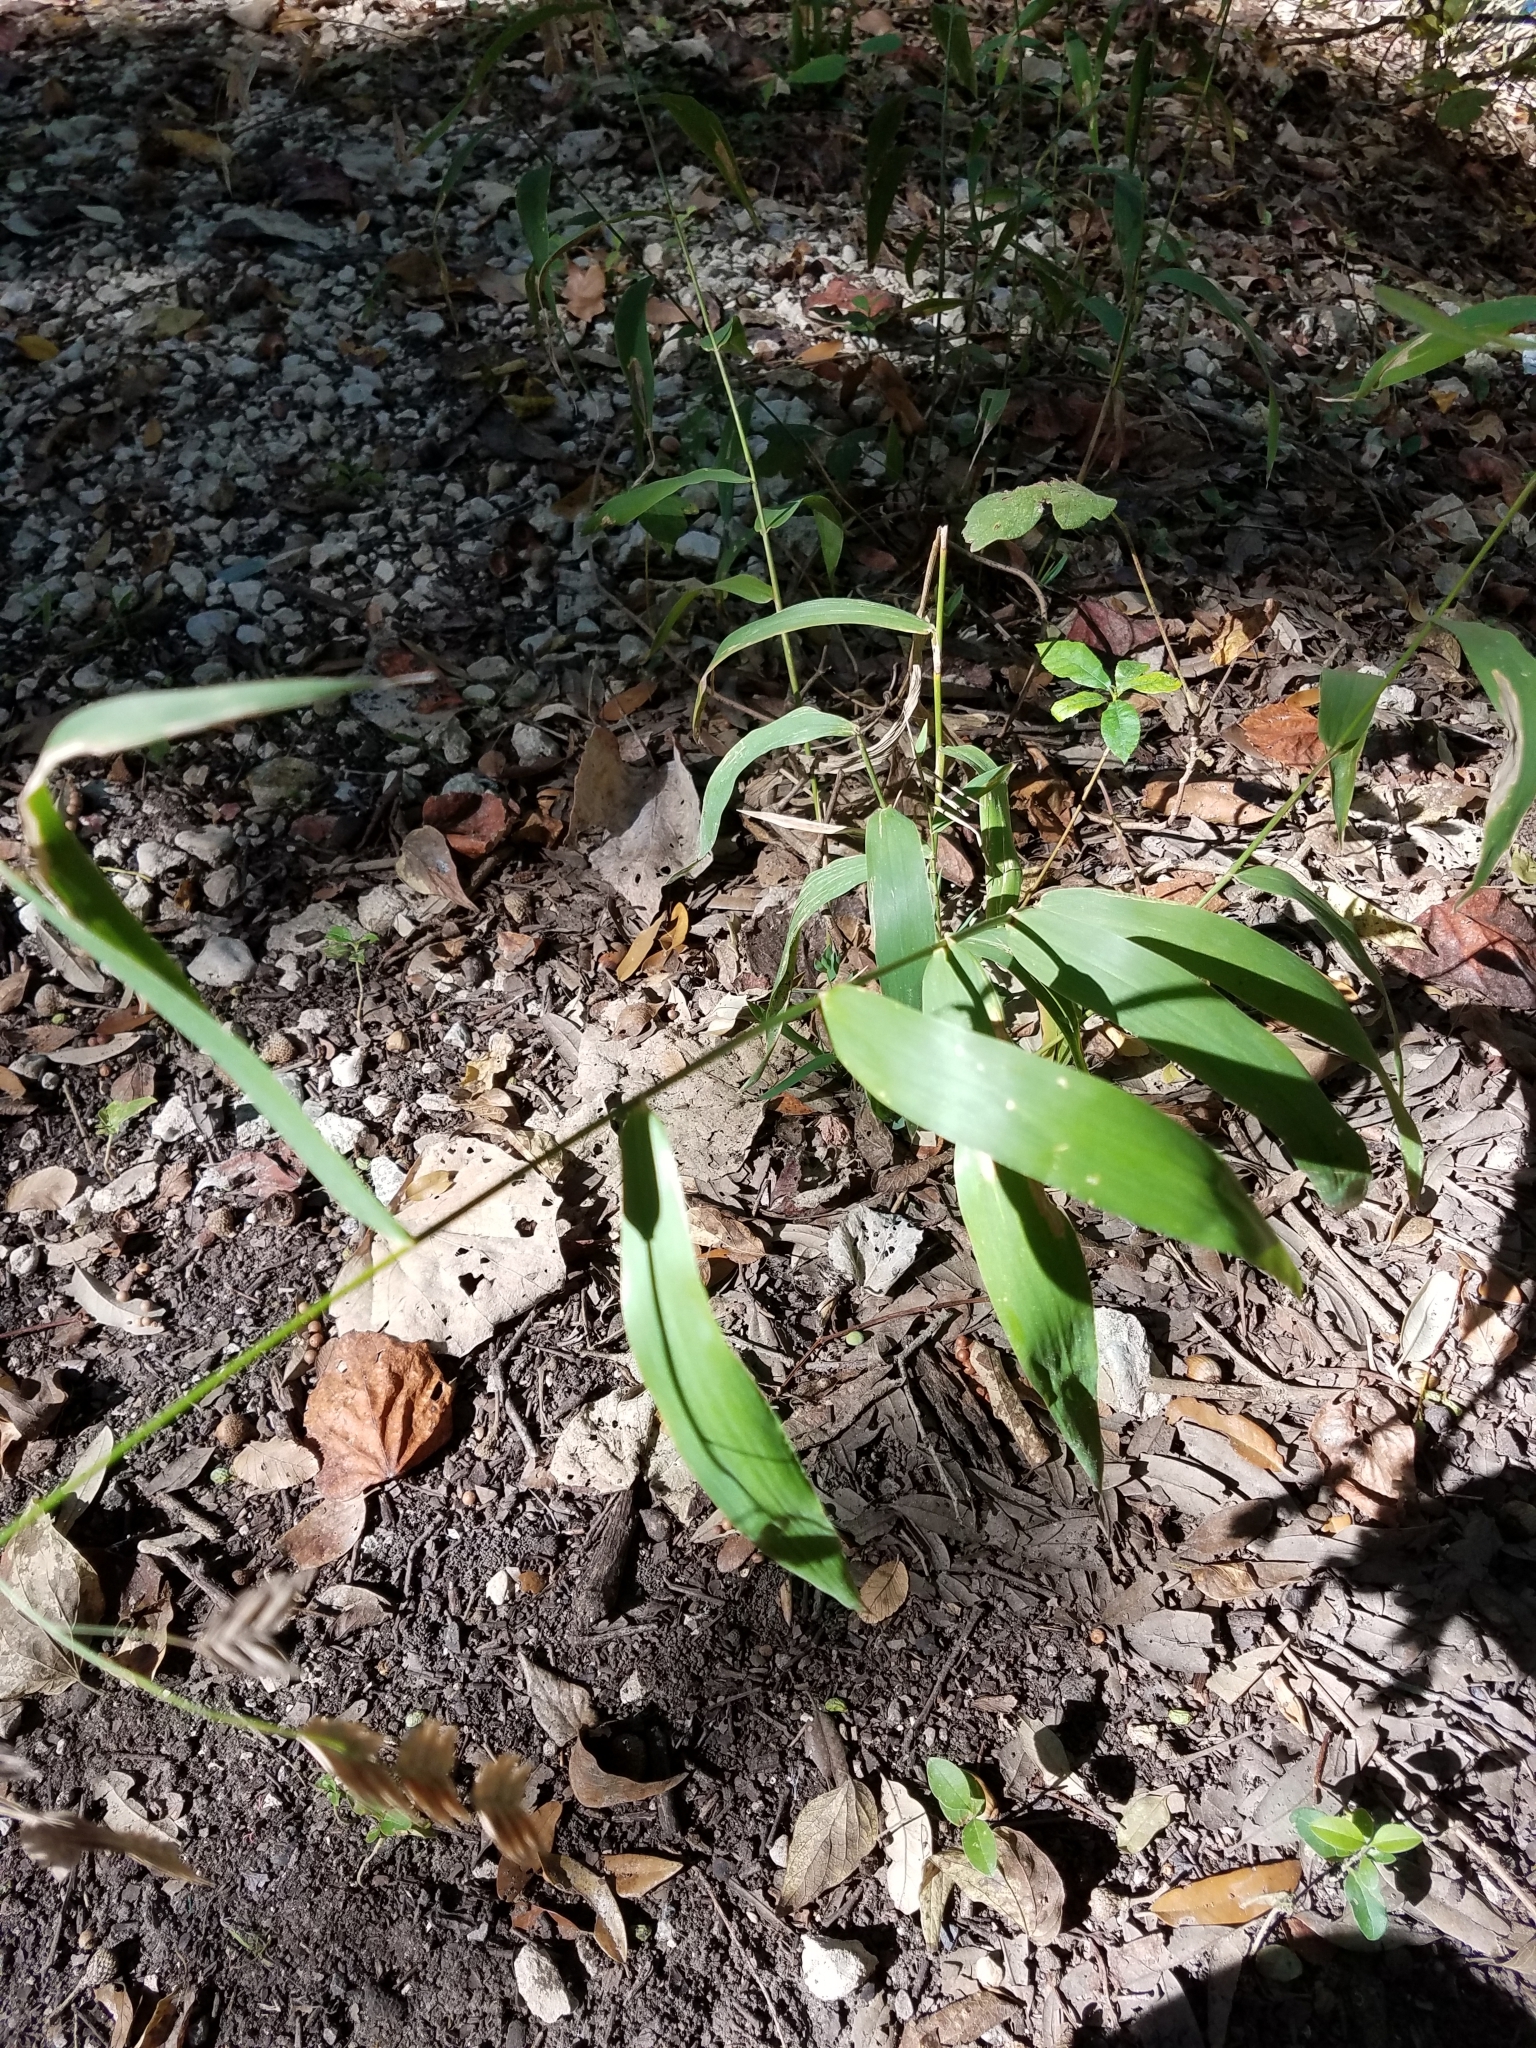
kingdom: Plantae
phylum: Tracheophyta
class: Liliopsida
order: Poales
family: Poaceae
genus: Chasmanthium
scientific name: Chasmanthium latifolium
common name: Broad-leaved chasmanthium
